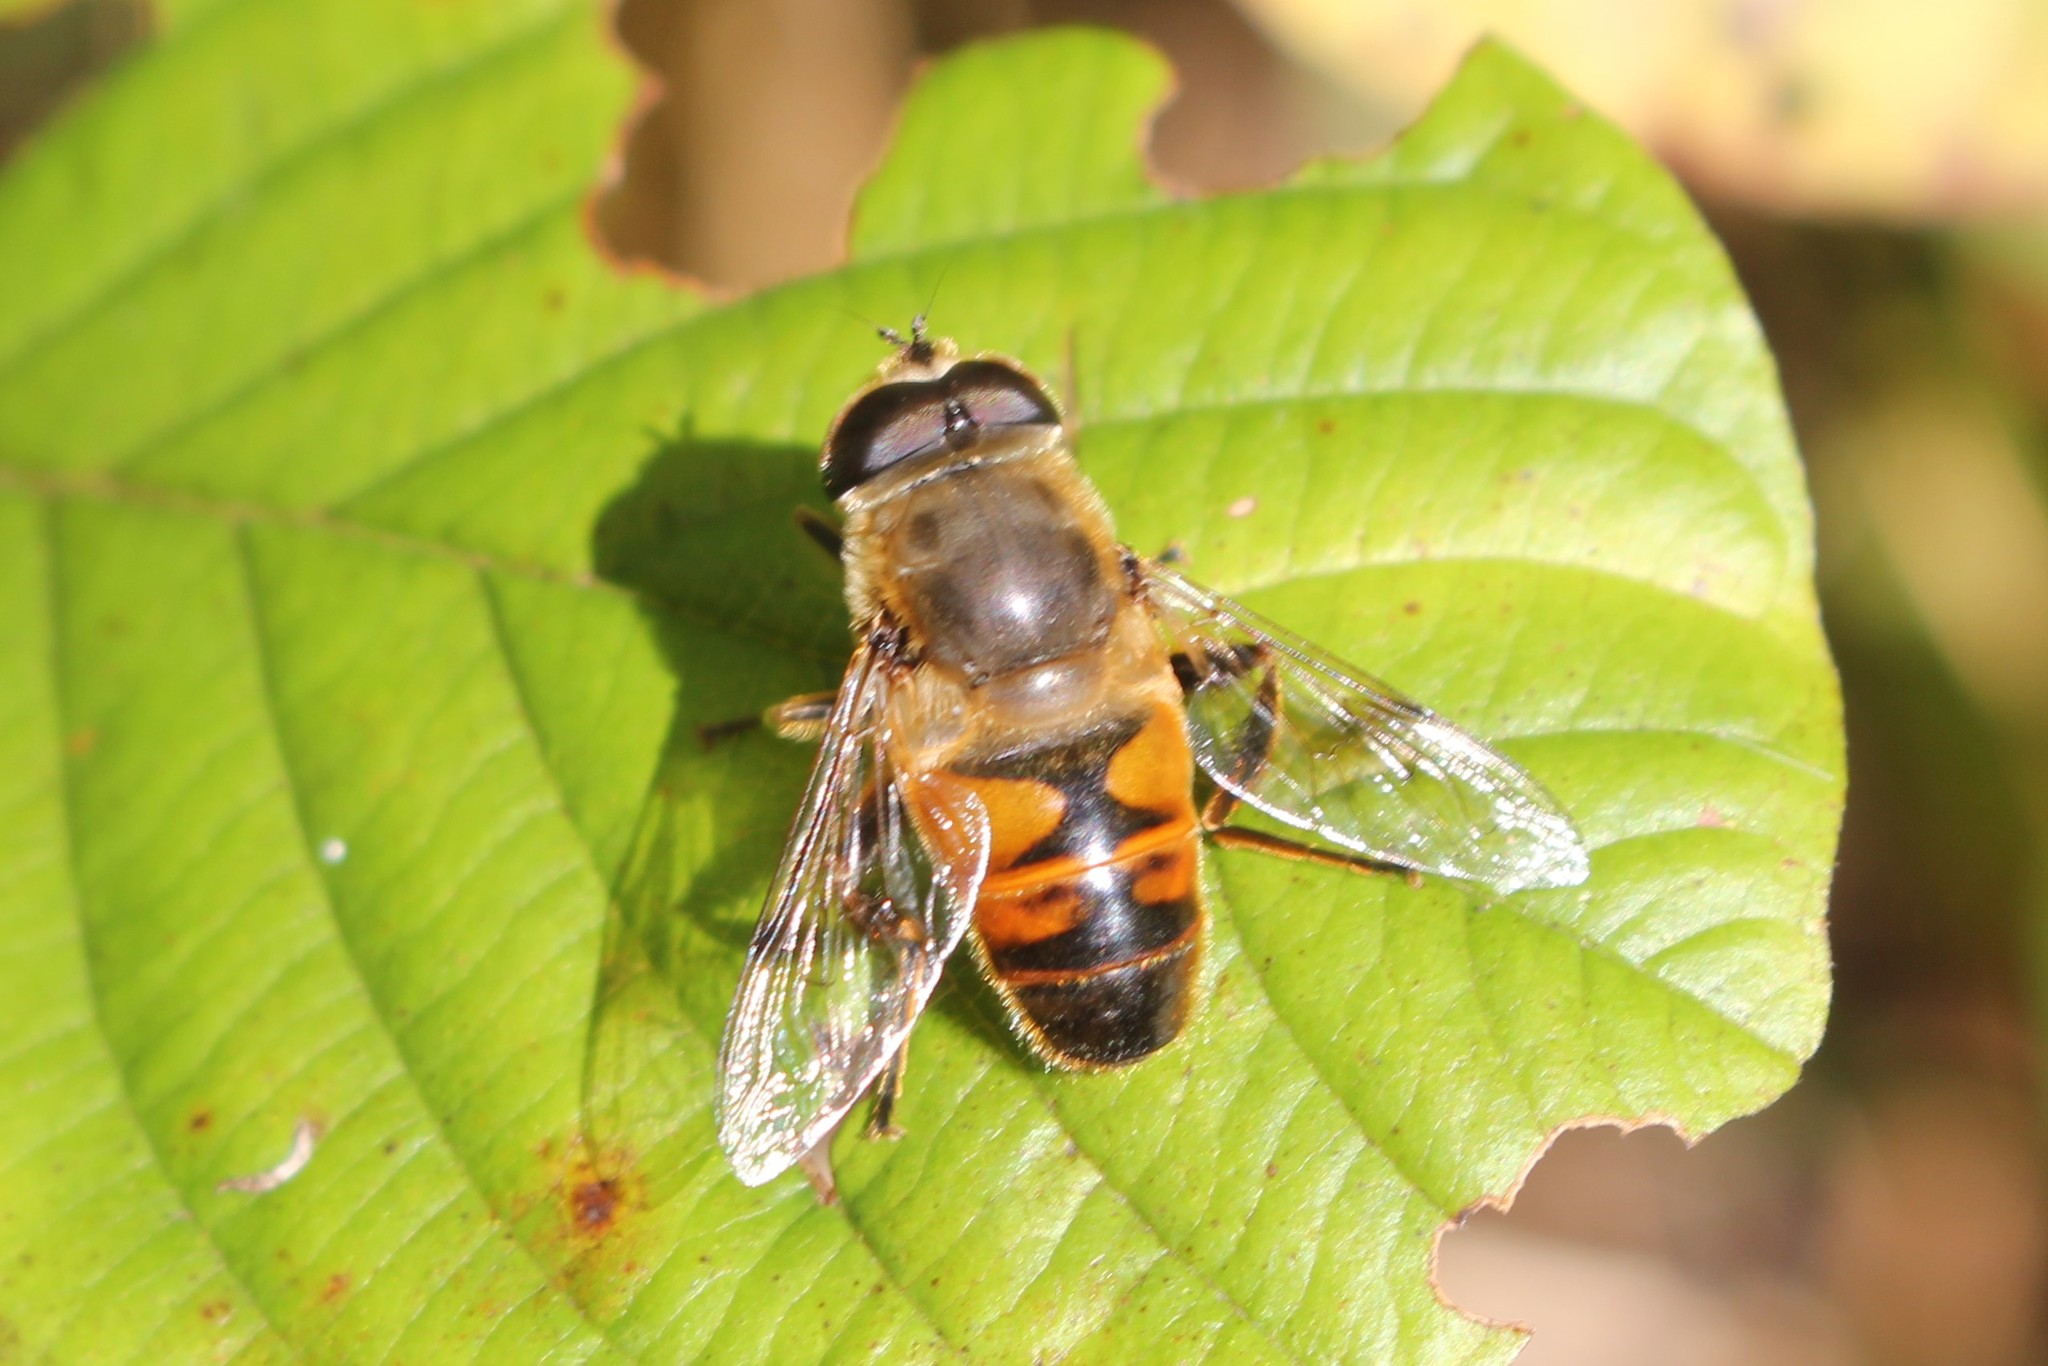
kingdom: Animalia
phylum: Arthropoda
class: Insecta
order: Diptera
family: Syrphidae
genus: Eristalis
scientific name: Eristalis tenax
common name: Drone fly
